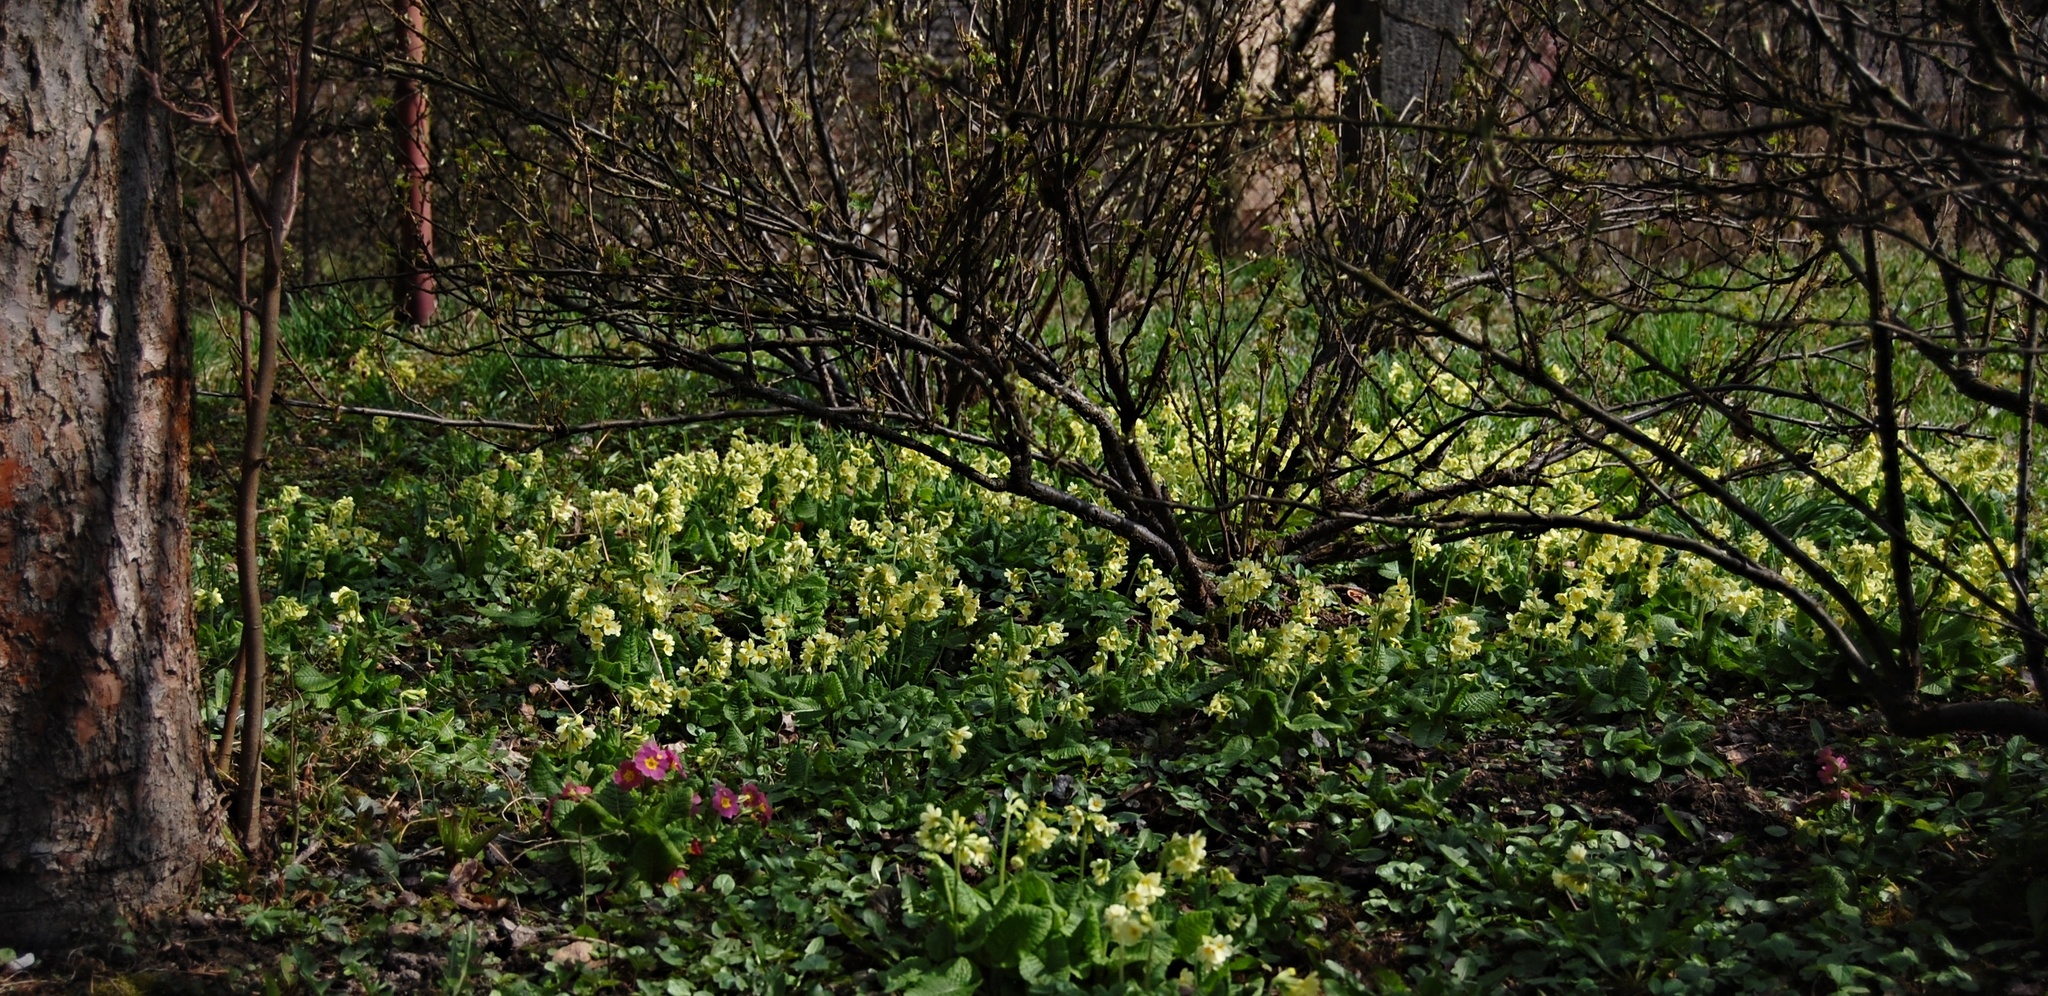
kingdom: Plantae
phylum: Tracheophyta
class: Magnoliopsida
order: Ericales
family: Primulaceae
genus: Primula
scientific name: Primula elatior
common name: Oxlip
